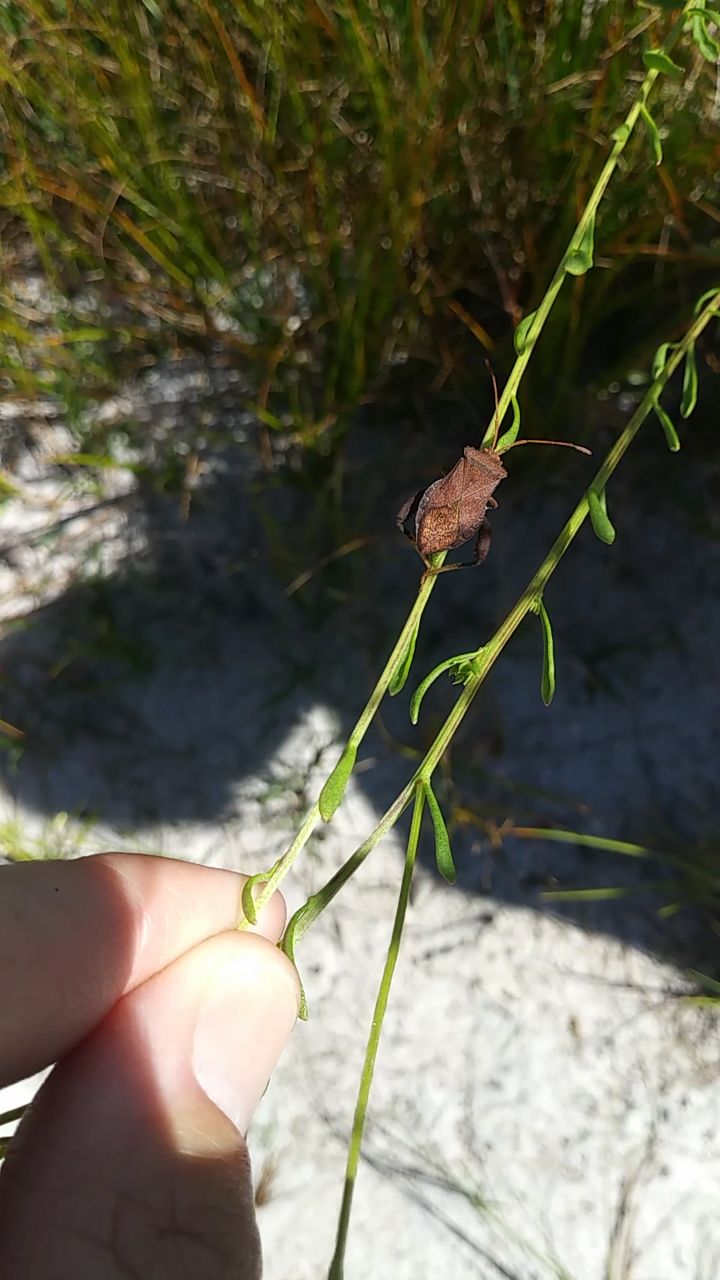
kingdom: Animalia
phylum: Arthropoda
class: Insecta
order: Hemiptera
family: Coreidae
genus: Euthochtha
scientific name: Euthochtha galeator
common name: Helmeted squash bug
